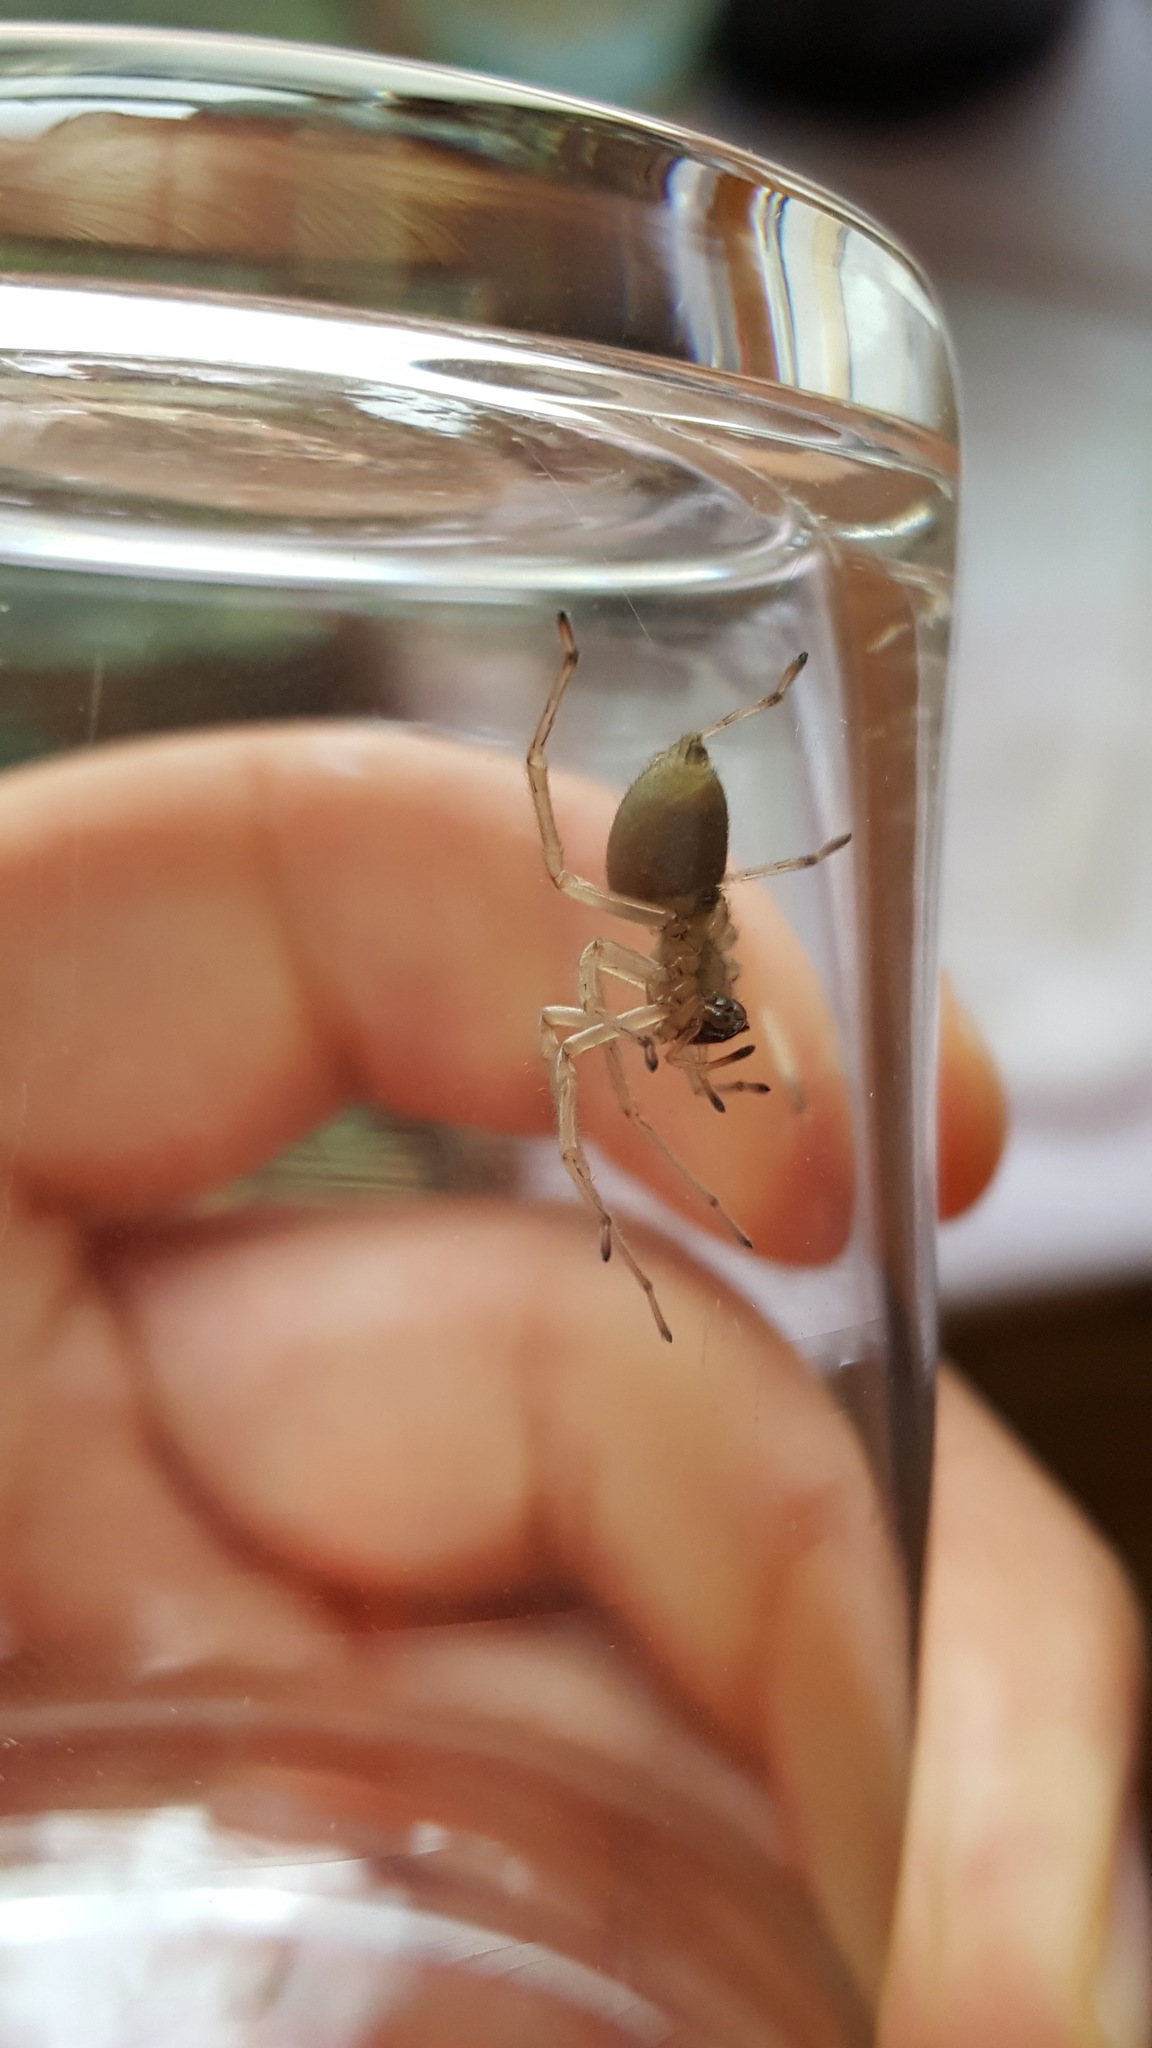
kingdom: Animalia
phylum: Arthropoda
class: Arachnida
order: Araneae
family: Cheiracanthiidae
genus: Cheiracanthium
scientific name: Cheiracanthium mildei
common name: Northern yellow sac spider
